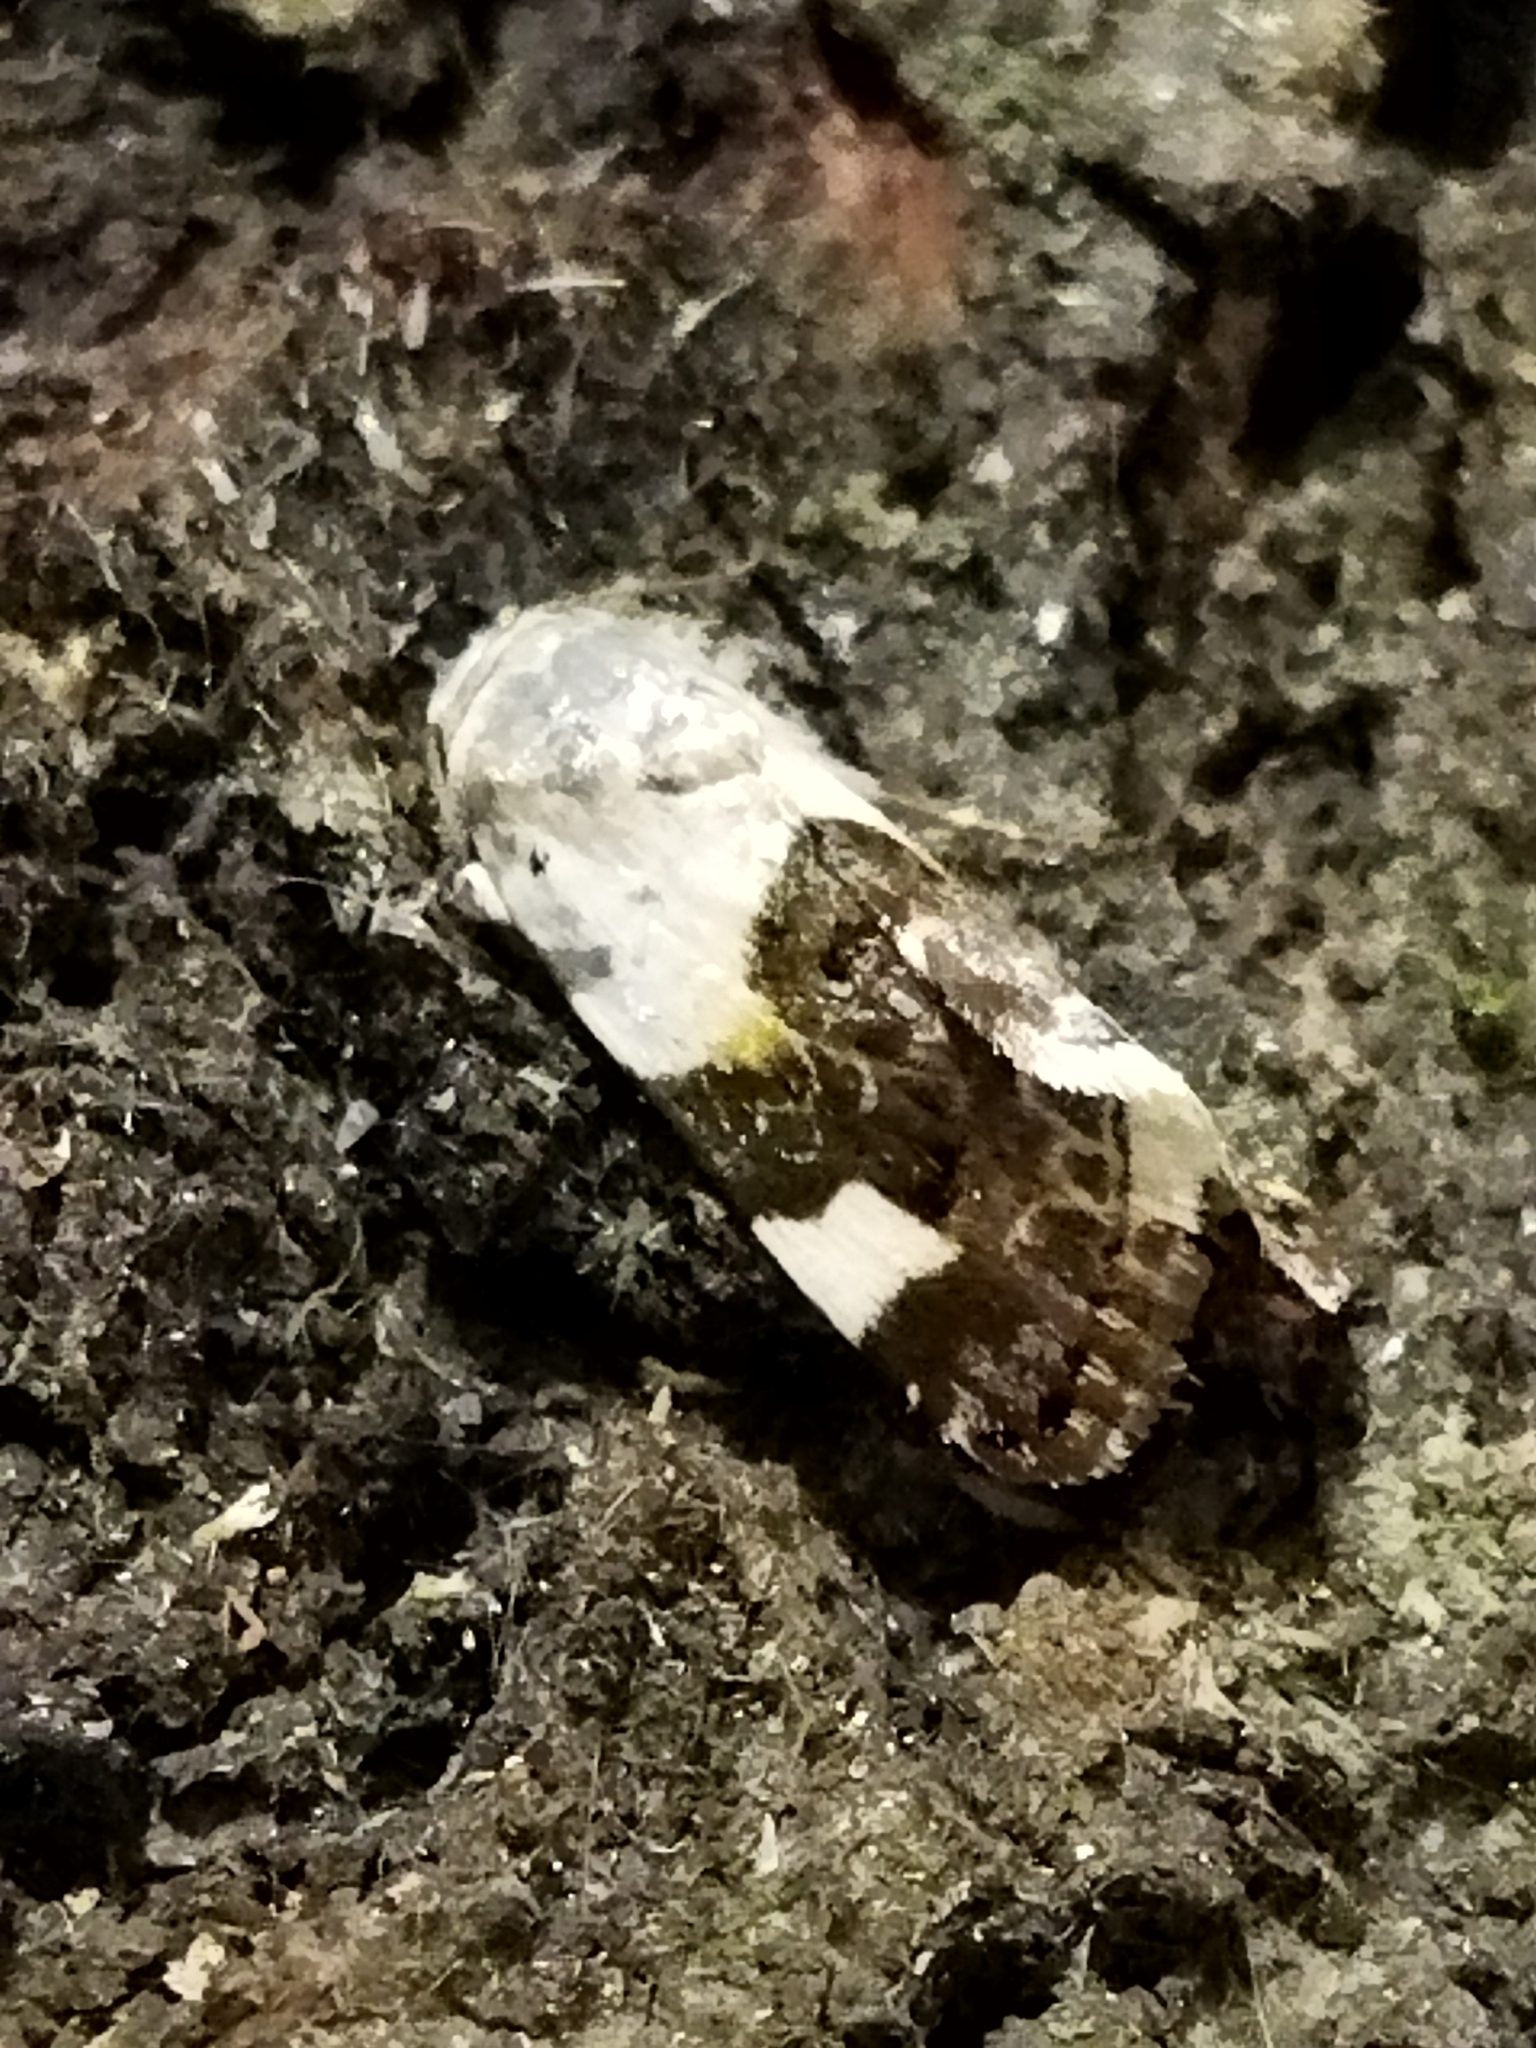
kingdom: Animalia
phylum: Arthropoda
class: Insecta
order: Lepidoptera
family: Noctuidae
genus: Acontia
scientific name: Acontia lucida
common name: Pale shoulder
